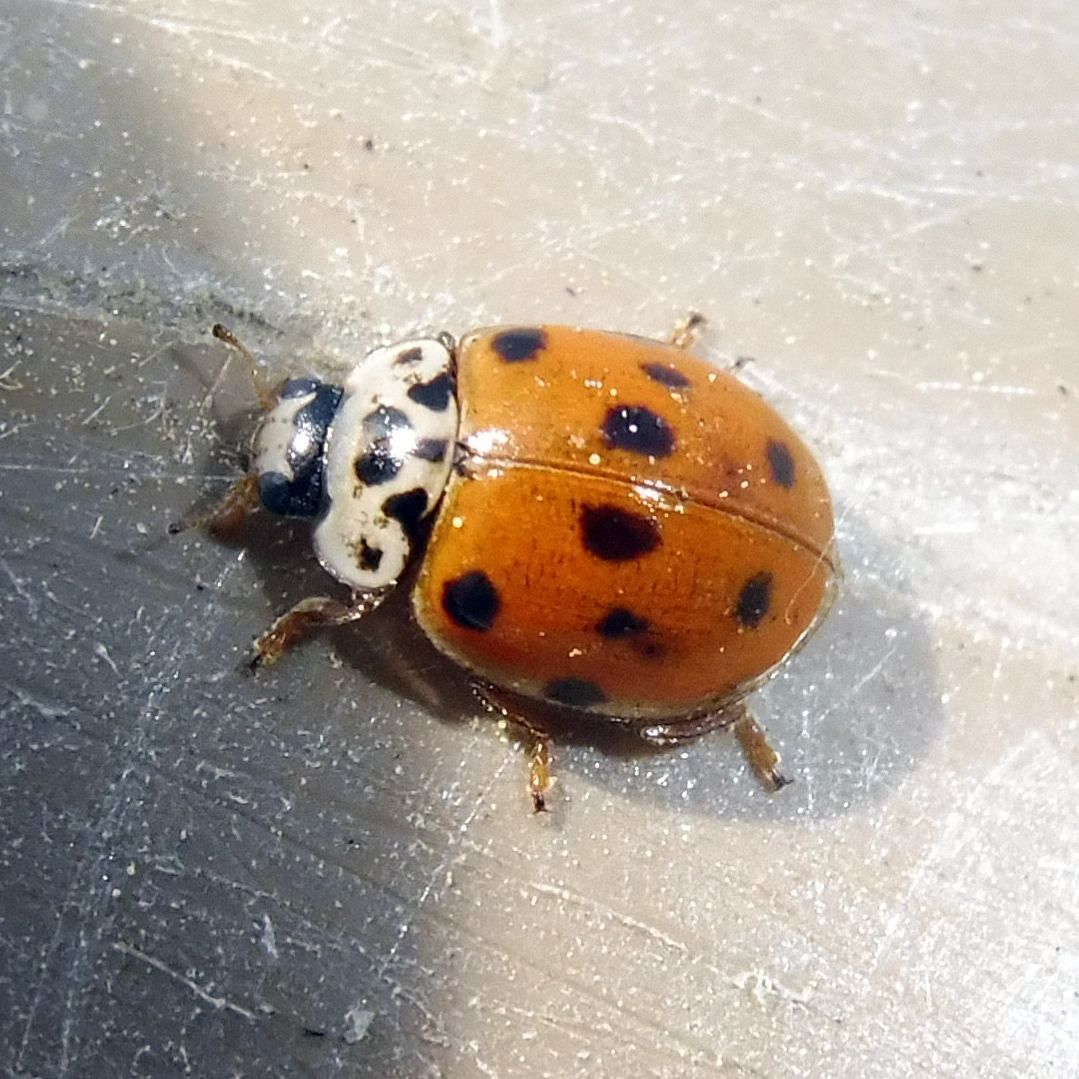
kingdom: Animalia
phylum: Arthropoda
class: Insecta
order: Coleoptera
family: Coccinellidae
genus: Adalia
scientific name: Adalia decempunctata
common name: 10-spot ladybird
